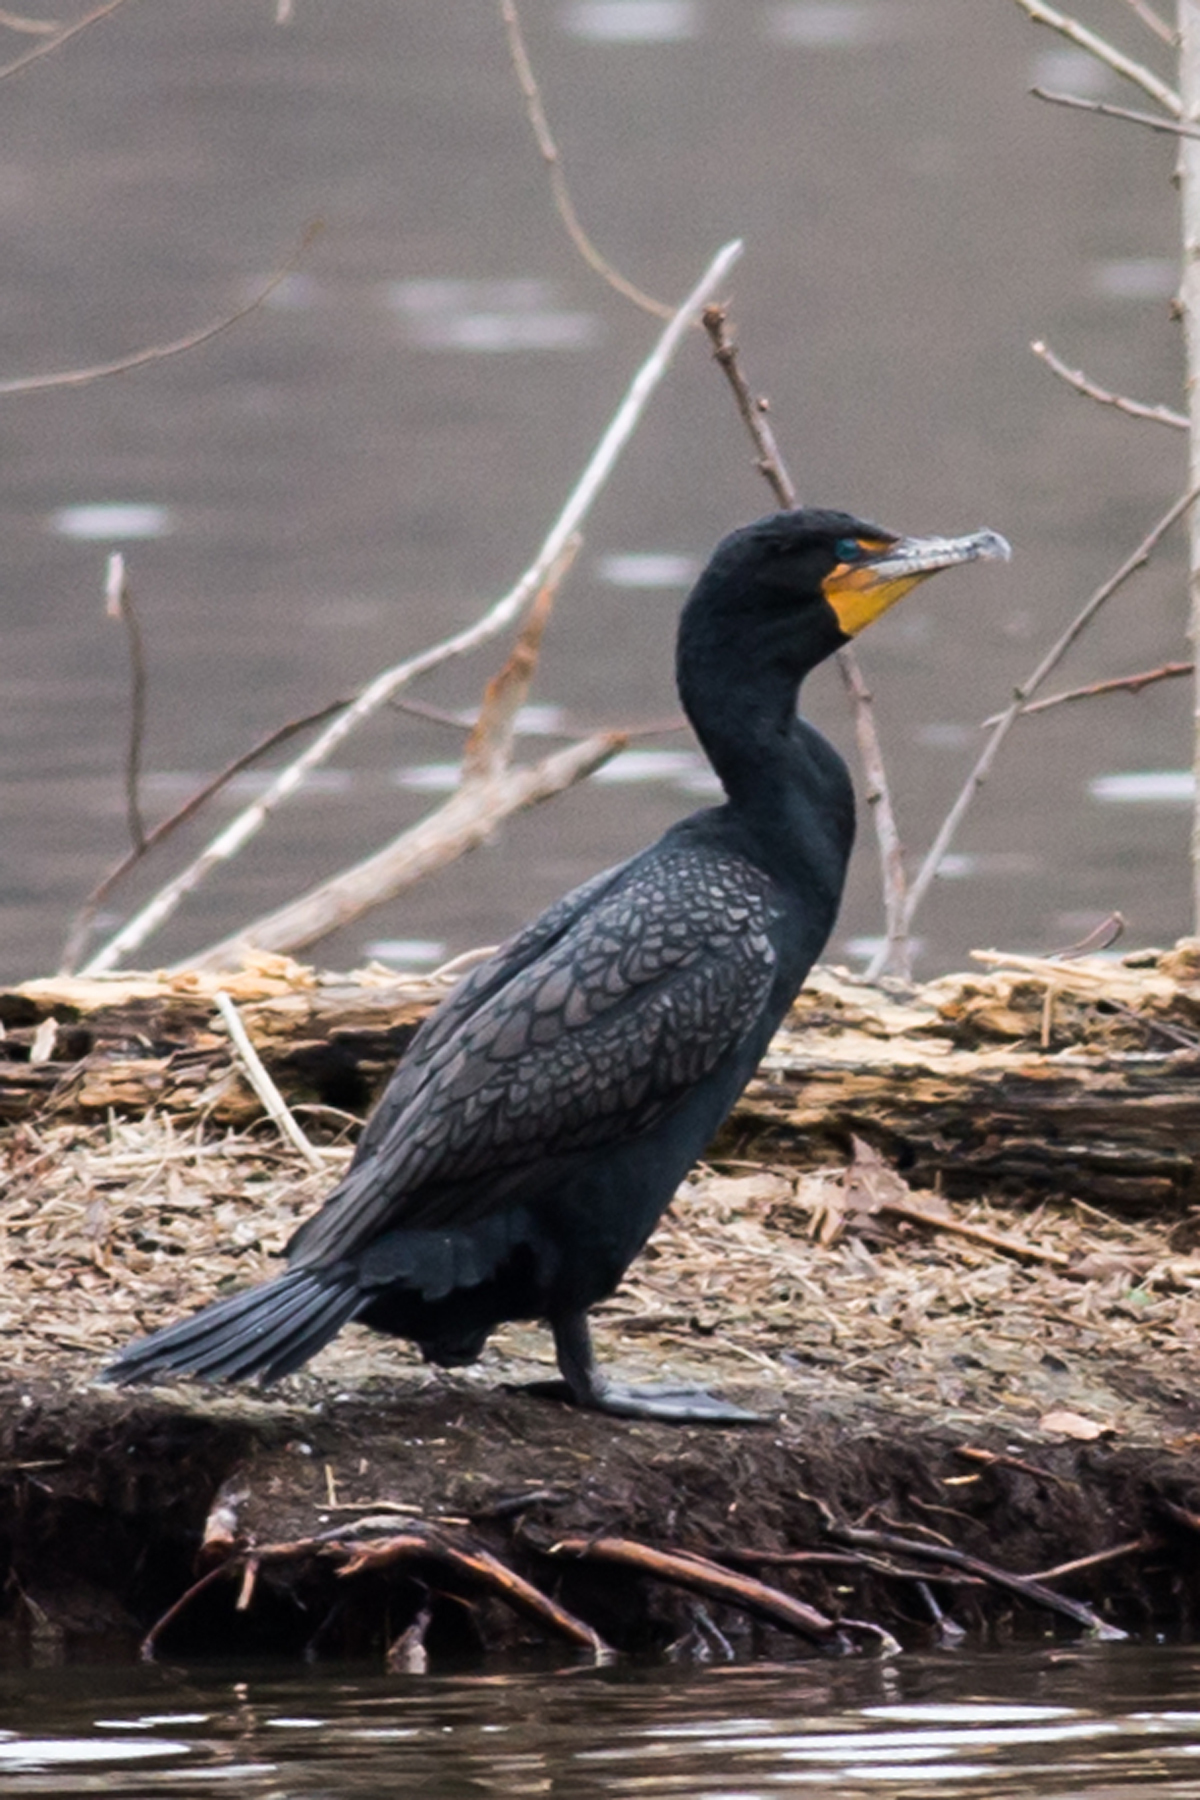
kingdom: Animalia
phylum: Chordata
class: Aves
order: Suliformes
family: Phalacrocoracidae
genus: Phalacrocorax
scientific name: Phalacrocorax auritus
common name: Double-crested cormorant
